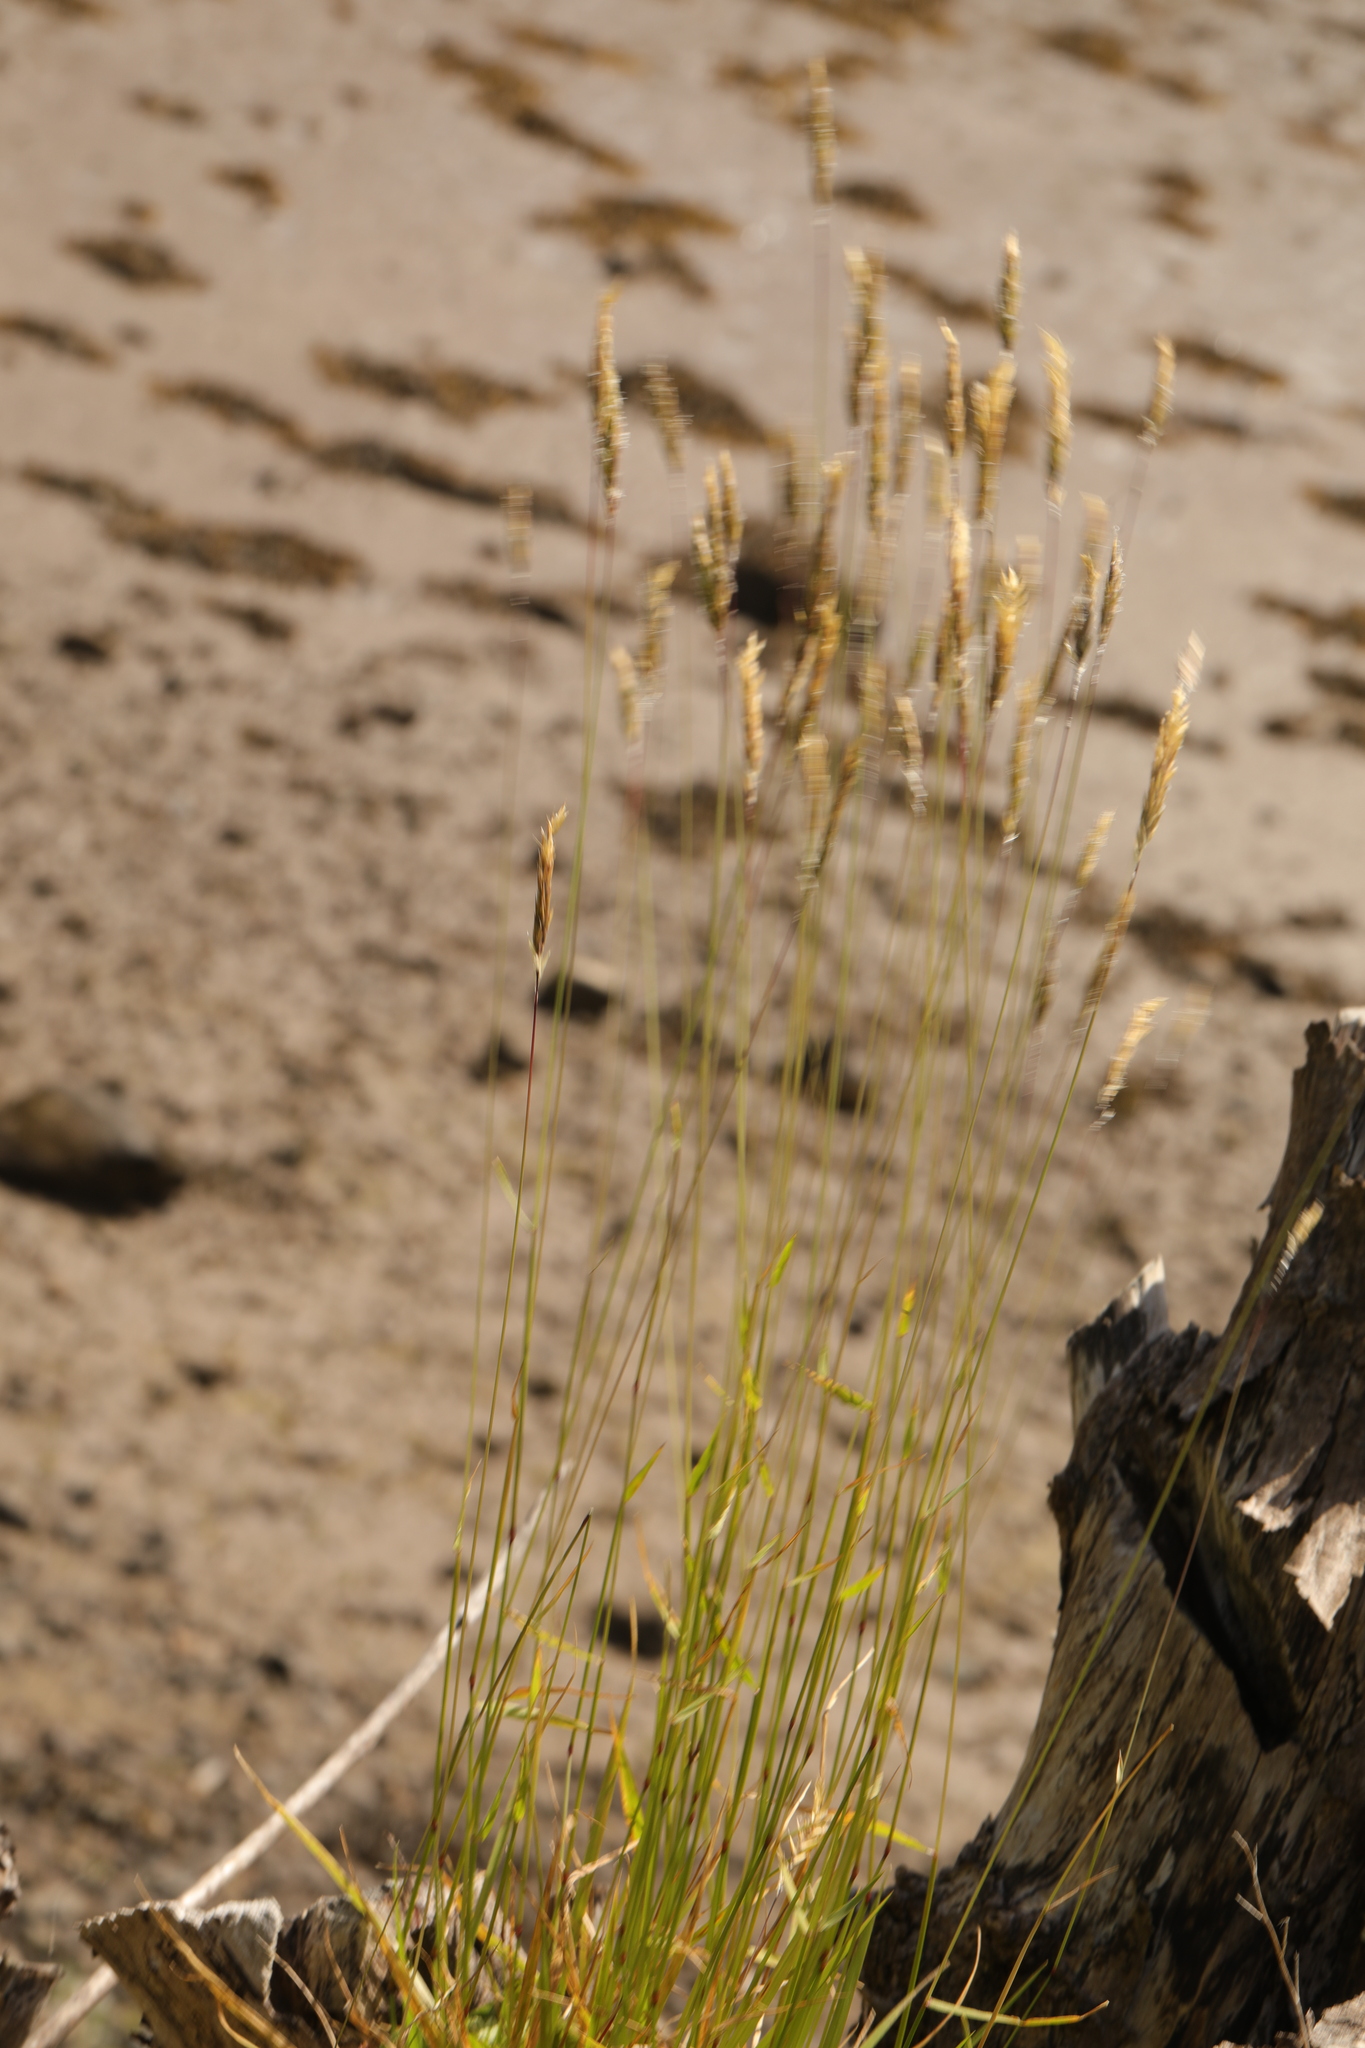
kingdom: Plantae
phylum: Tracheophyta
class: Liliopsida
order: Poales
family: Poaceae
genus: Anthoxanthum
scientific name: Anthoxanthum odoratum
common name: Sweet vernalgrass
